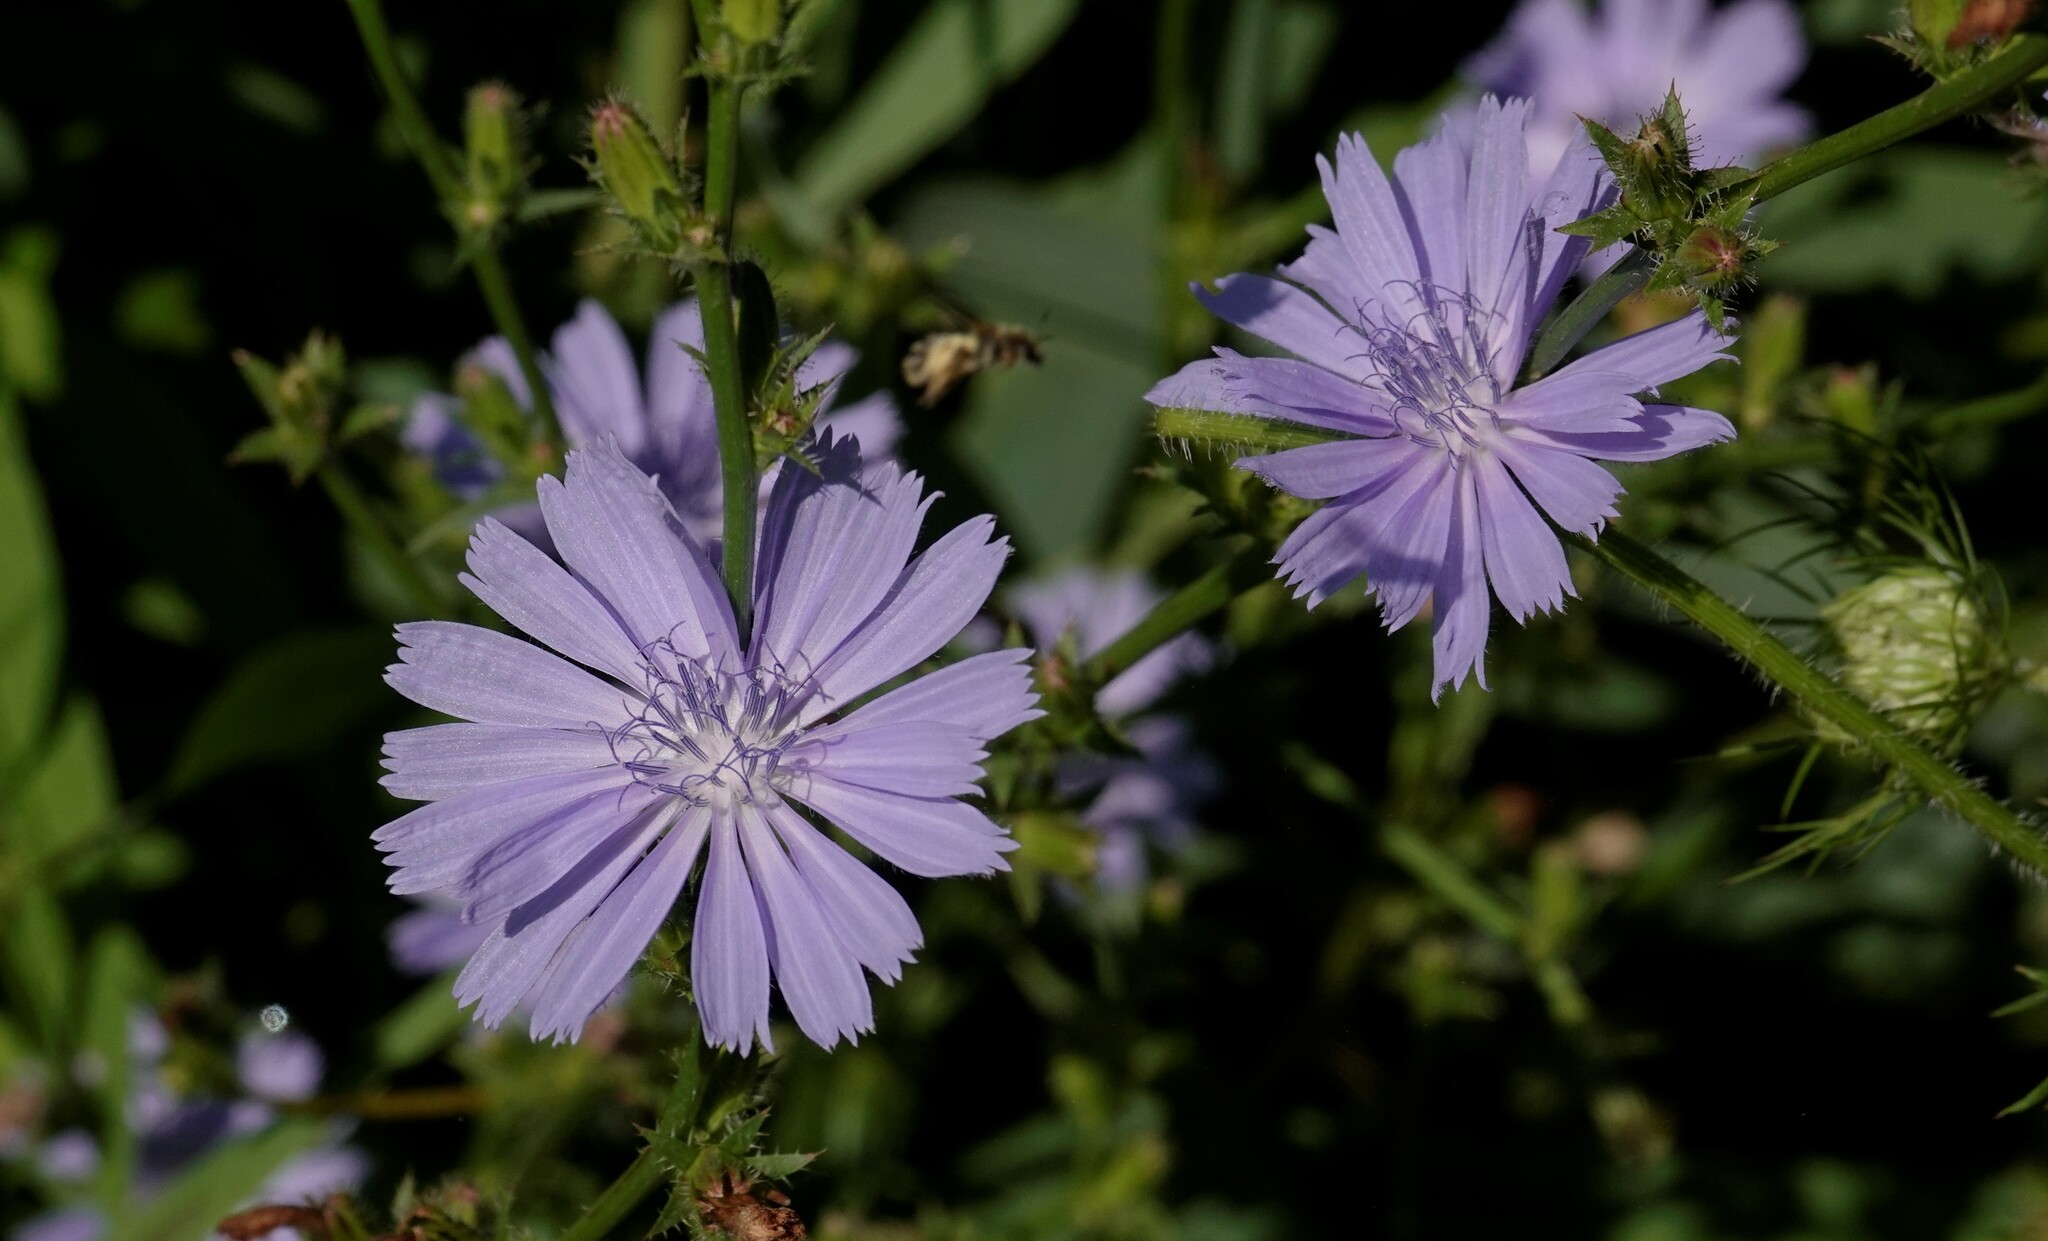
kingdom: Plantae
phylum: Tracheophyta
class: Magnoliopsida
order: Asterales
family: Asteraceae
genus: Cichorium
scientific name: Cichorium intybus
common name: Chicory
